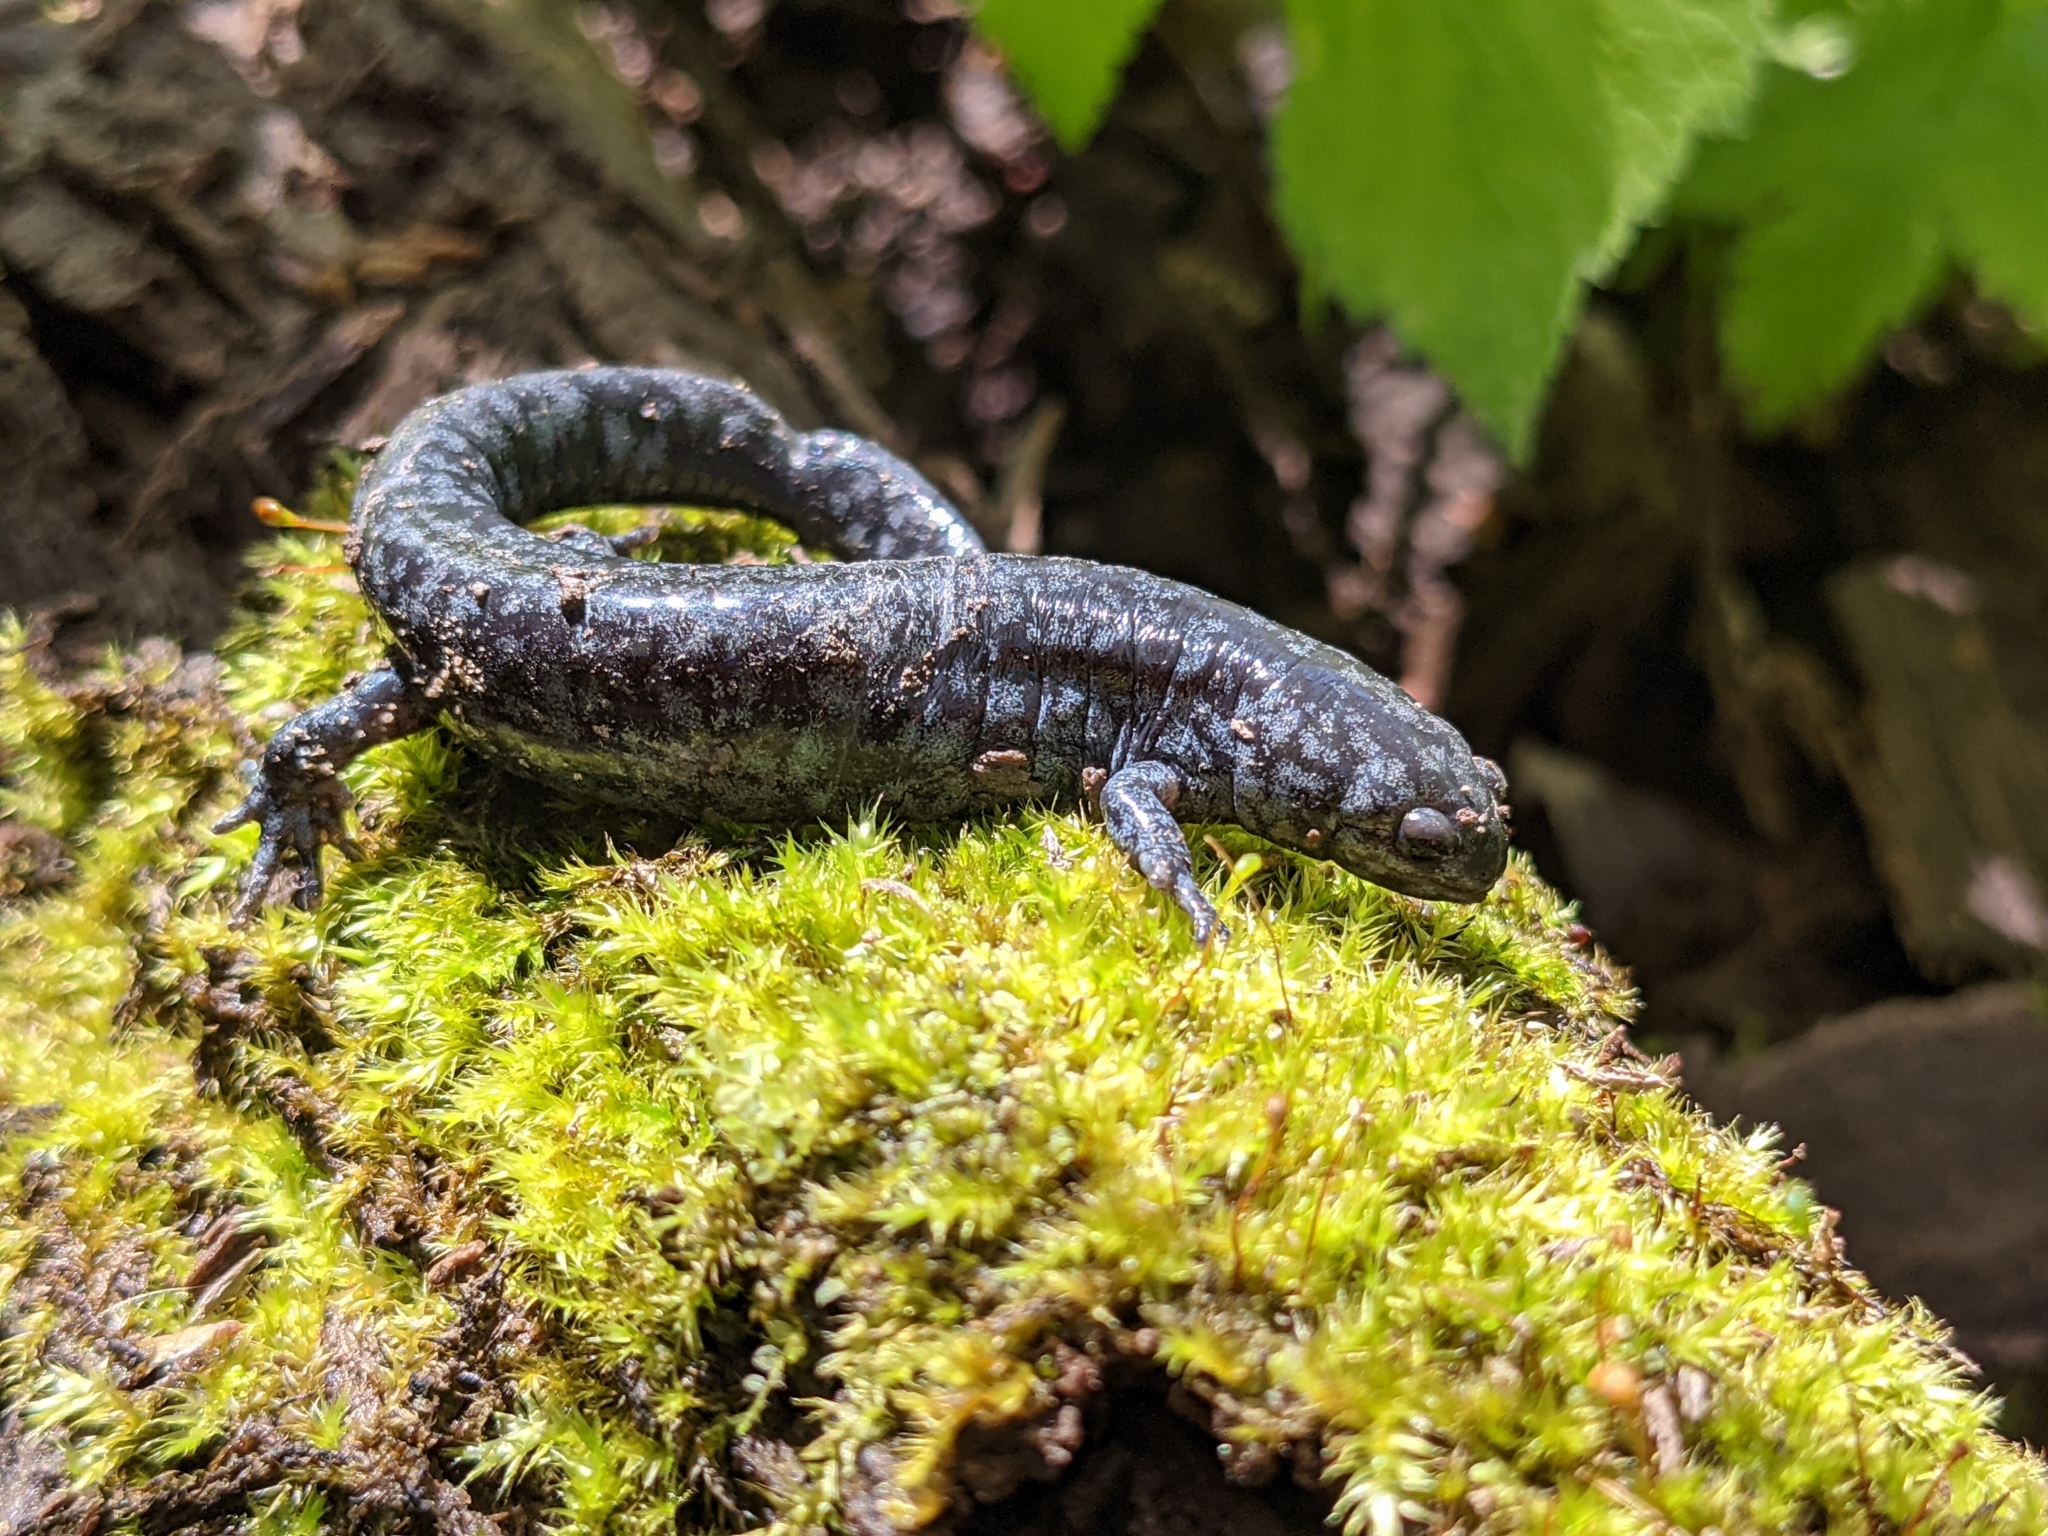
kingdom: Animalia
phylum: Chordata
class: Amphibia
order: Caudata
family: Ambystomatidae
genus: Ambystoma
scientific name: Ambystoma texanum
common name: Small-mouth salamander
